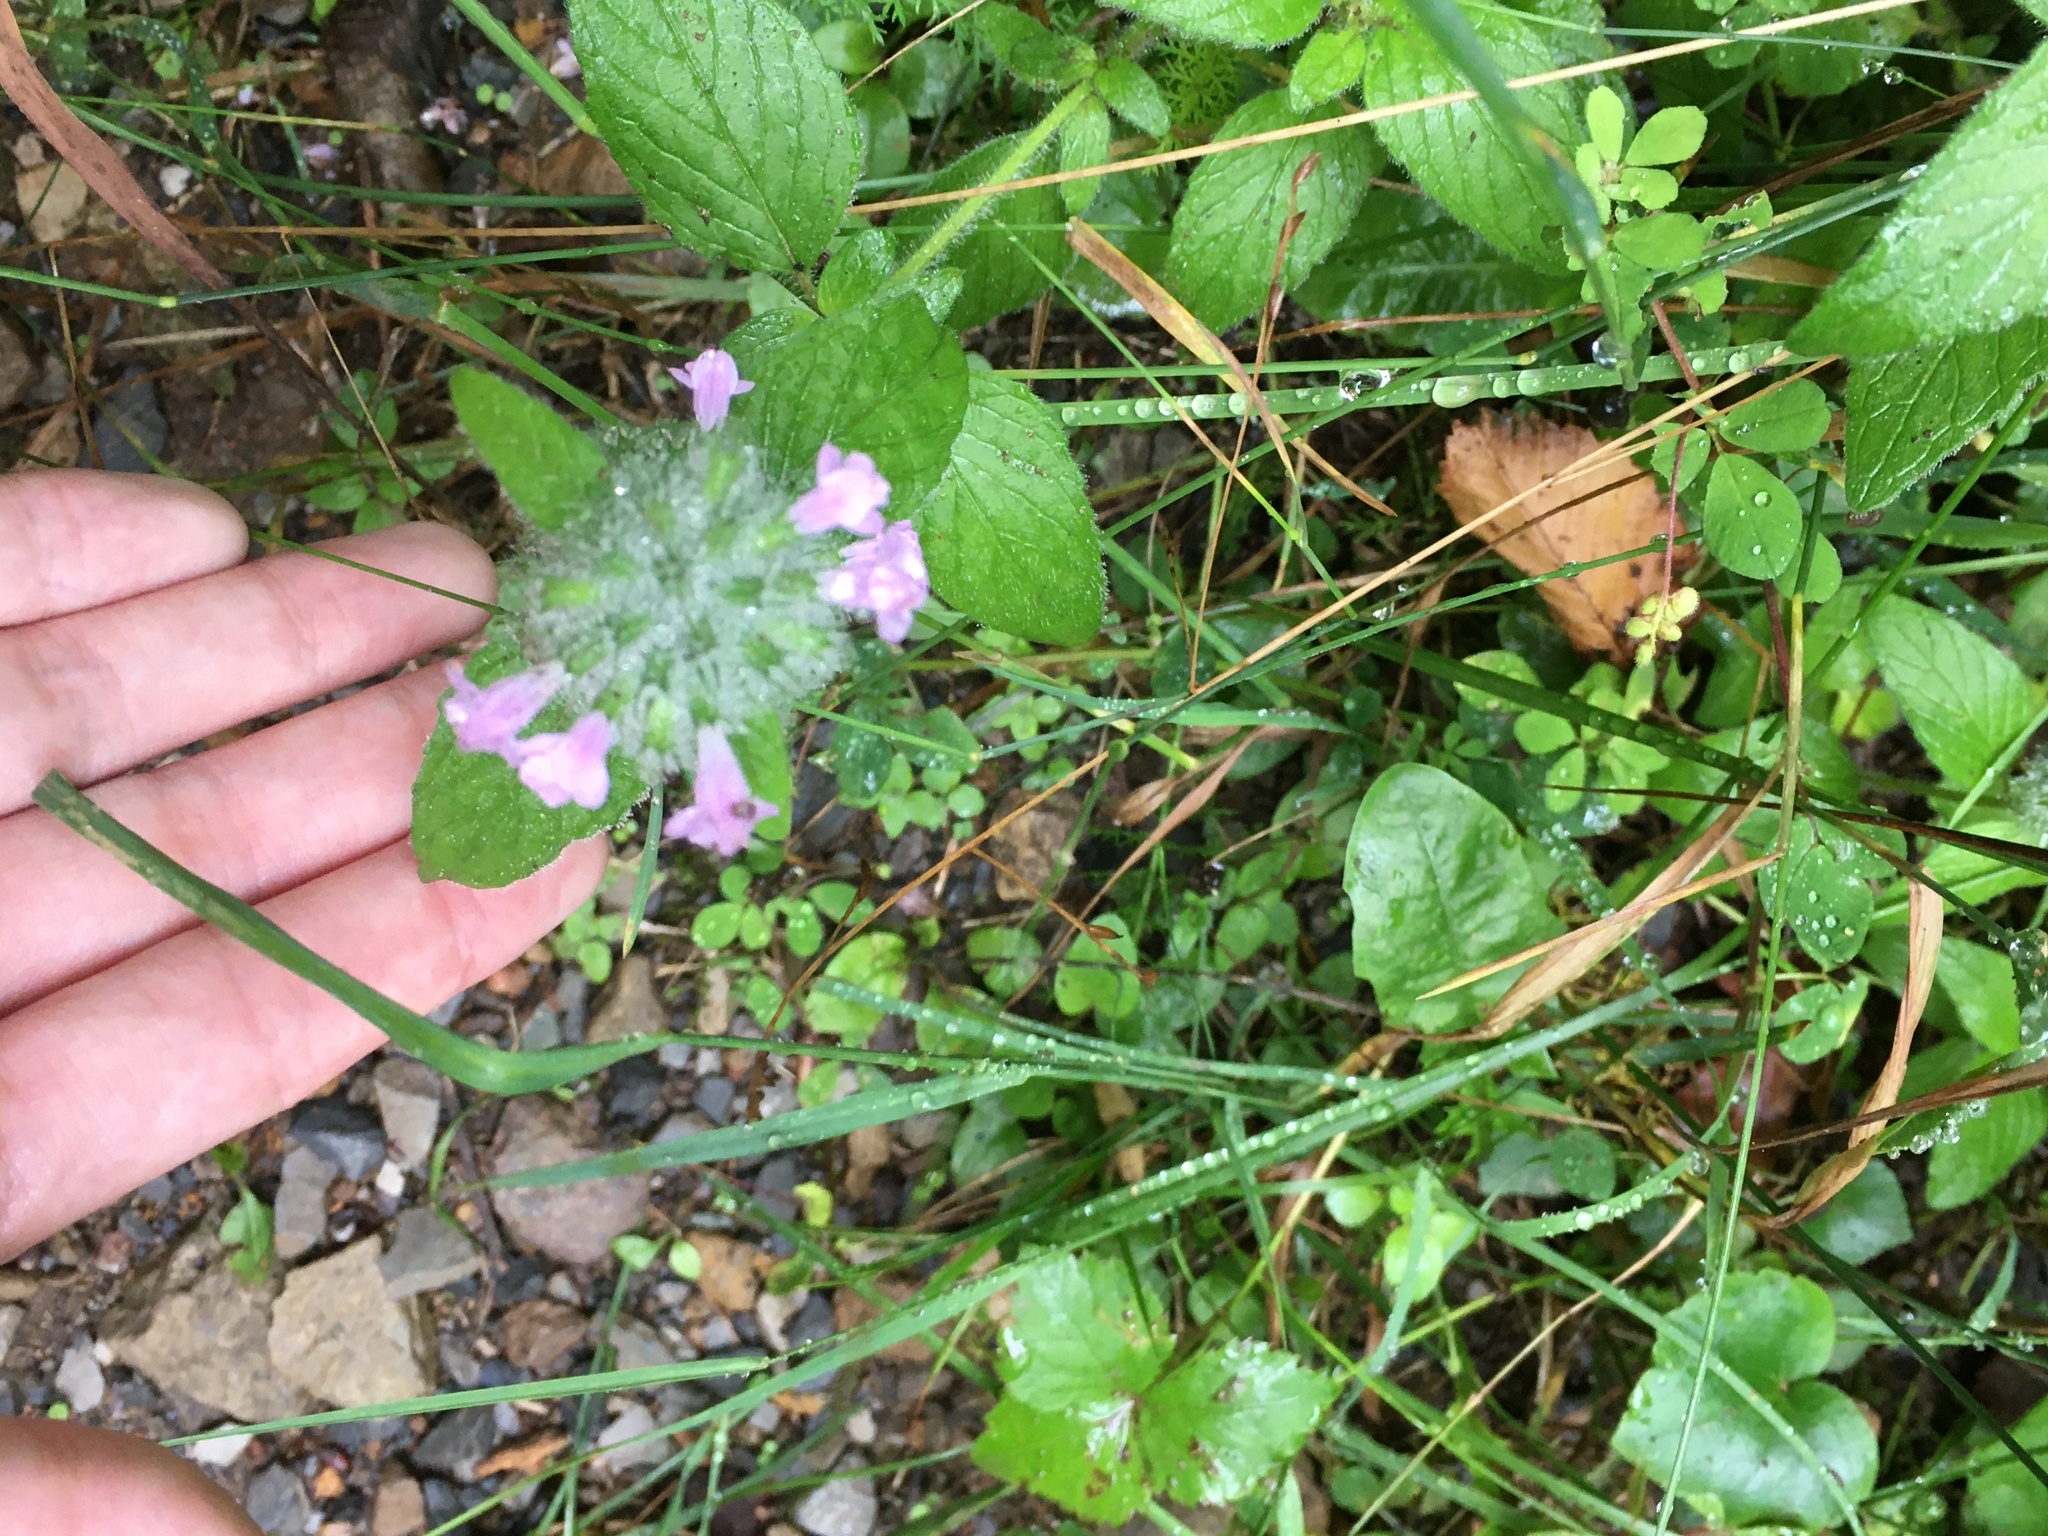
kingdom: Plantae
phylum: Tracheophyta
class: Magnoliopsida
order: Lamiales
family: Lamiaceae
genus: Clinopodium
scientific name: Clinopodium vulgare
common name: Wild basil
